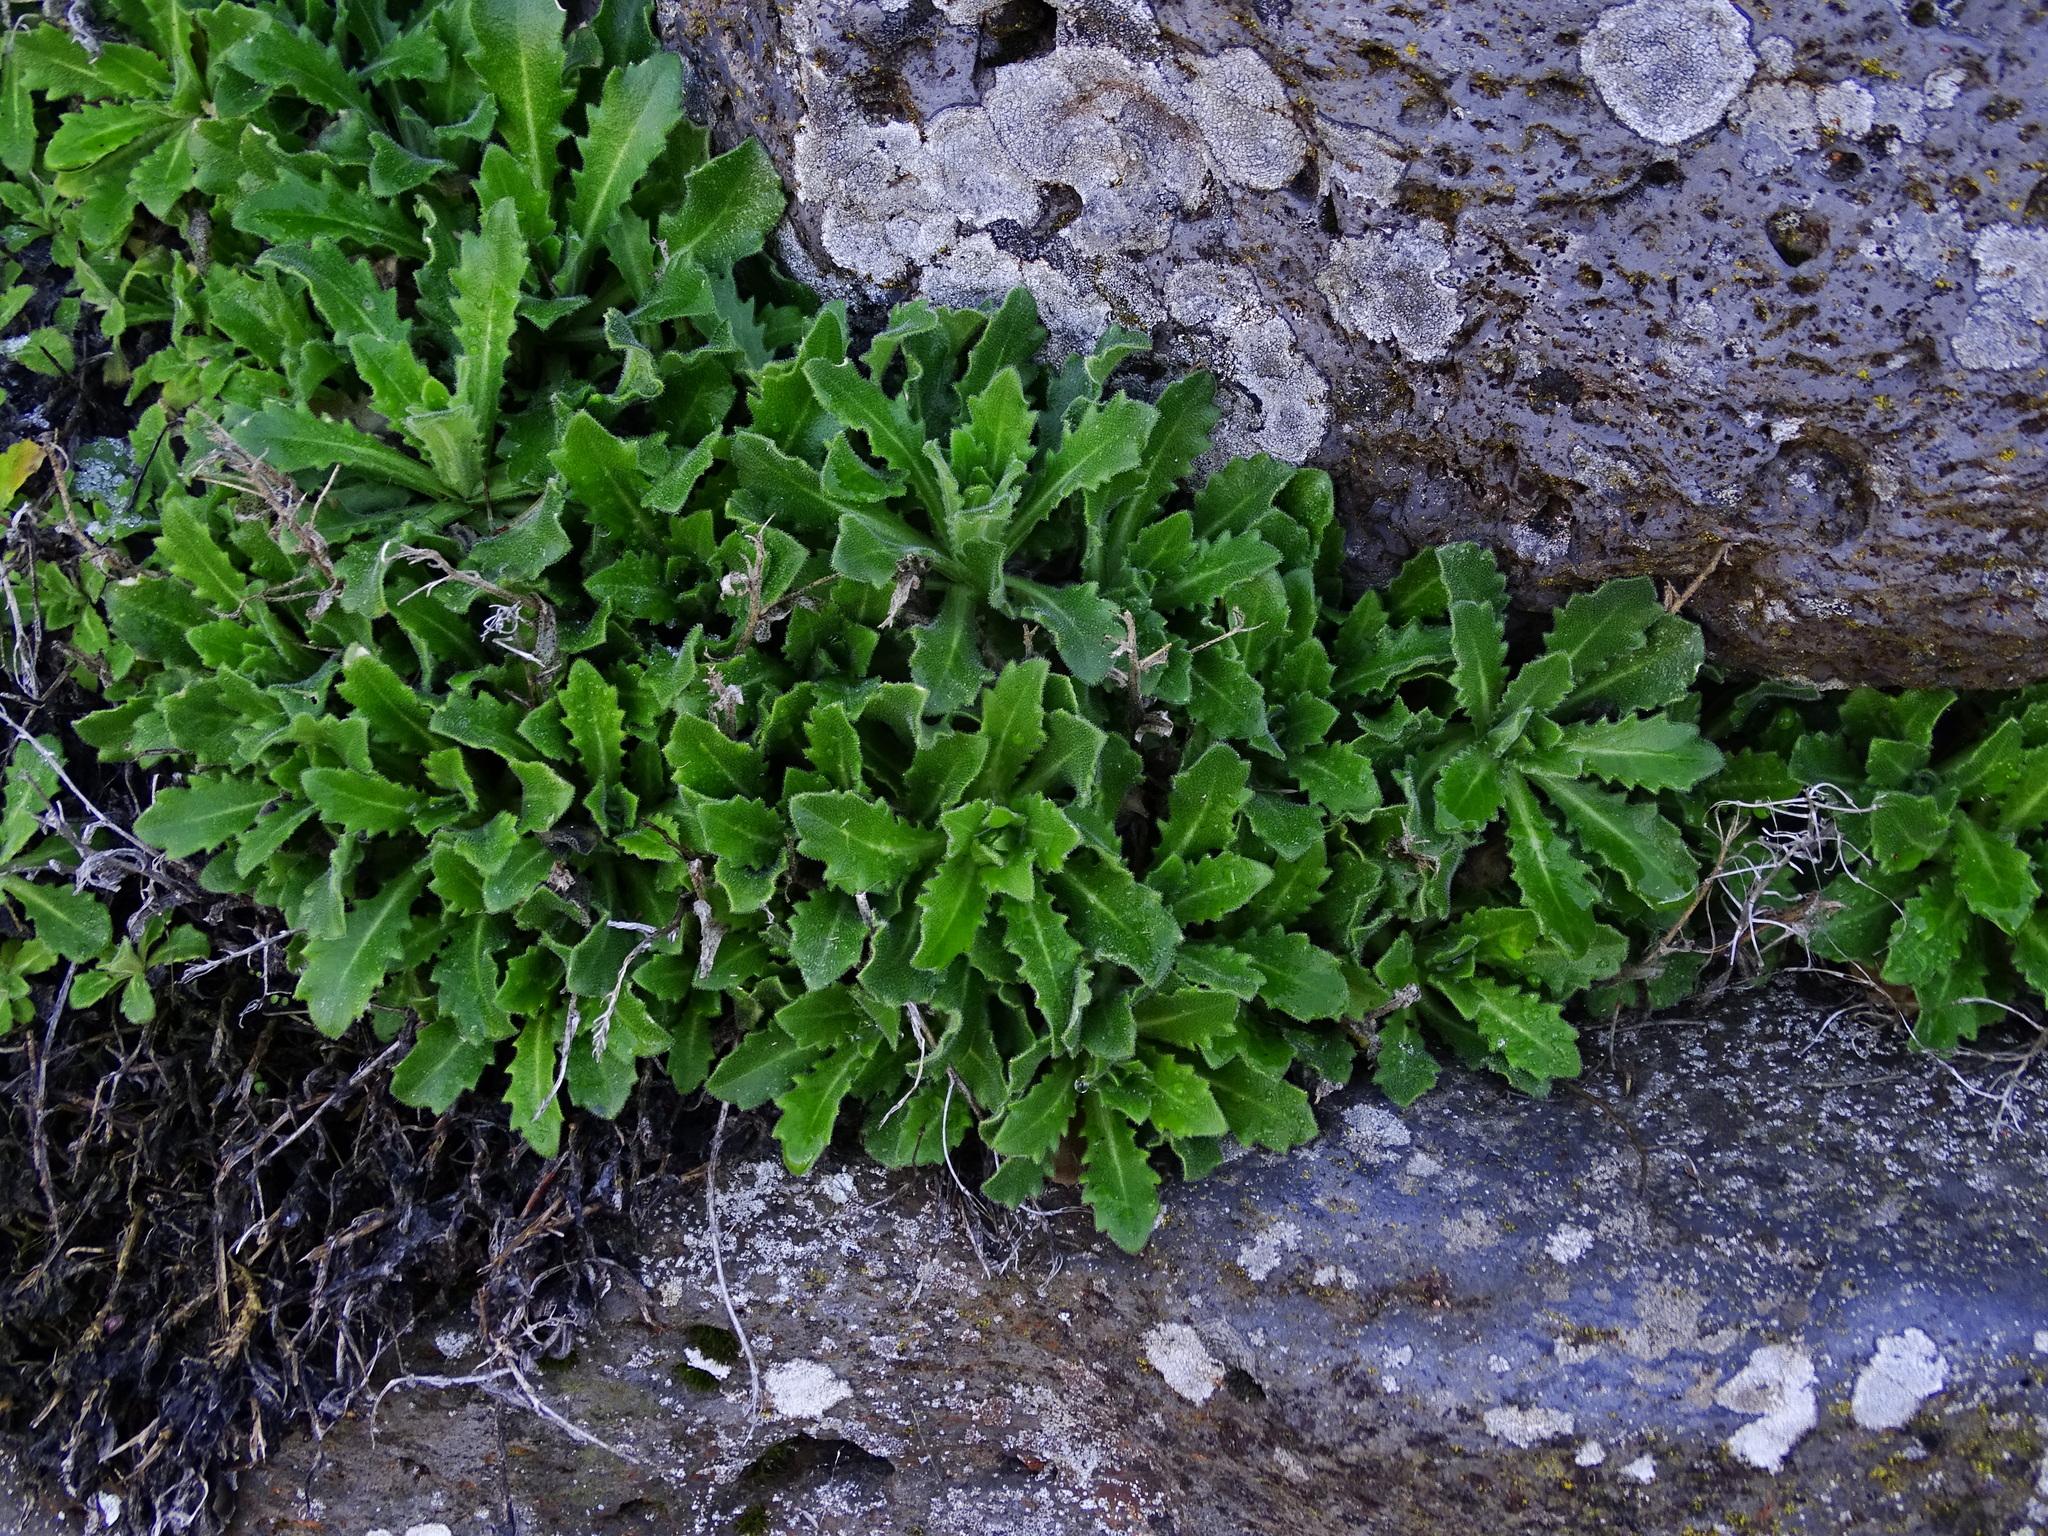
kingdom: Plantae
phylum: Tracheophyta
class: Magnoliopsida
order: Brassicales
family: Brassicaceae
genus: Arabis
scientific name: Arabis caucasica
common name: Gray rockcress
